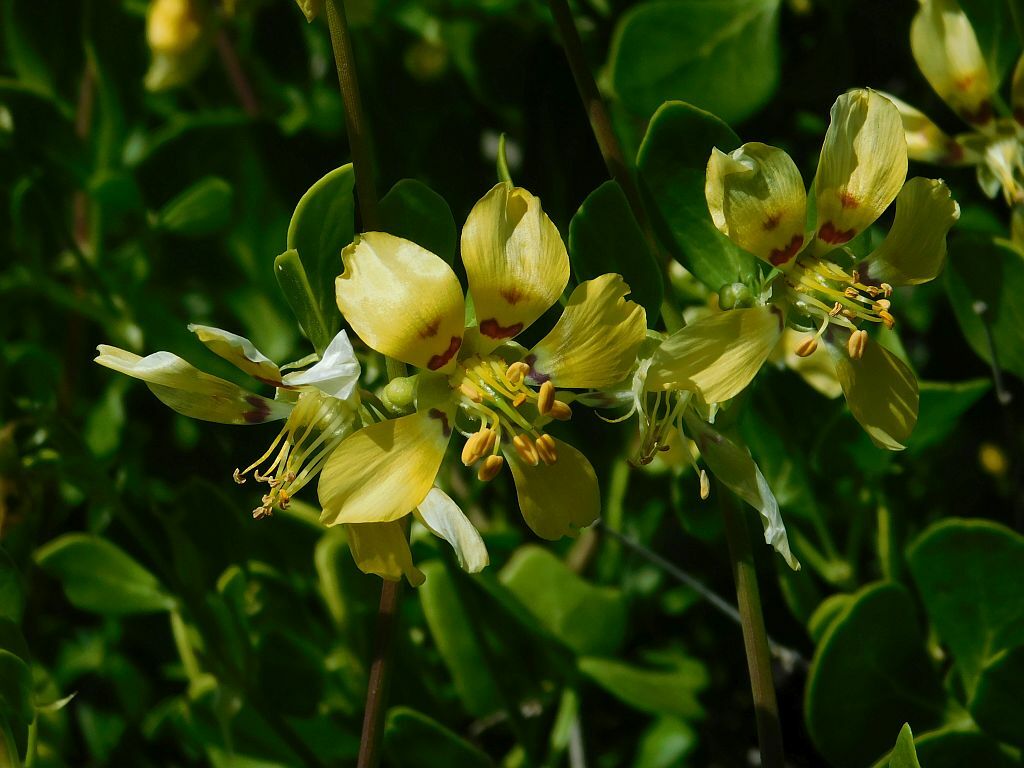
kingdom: Plantae
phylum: Tracheophyta
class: Magnoliopsida
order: Zygophyllales
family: Zygophyllaceae
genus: Roepera
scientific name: Roepera foetida
